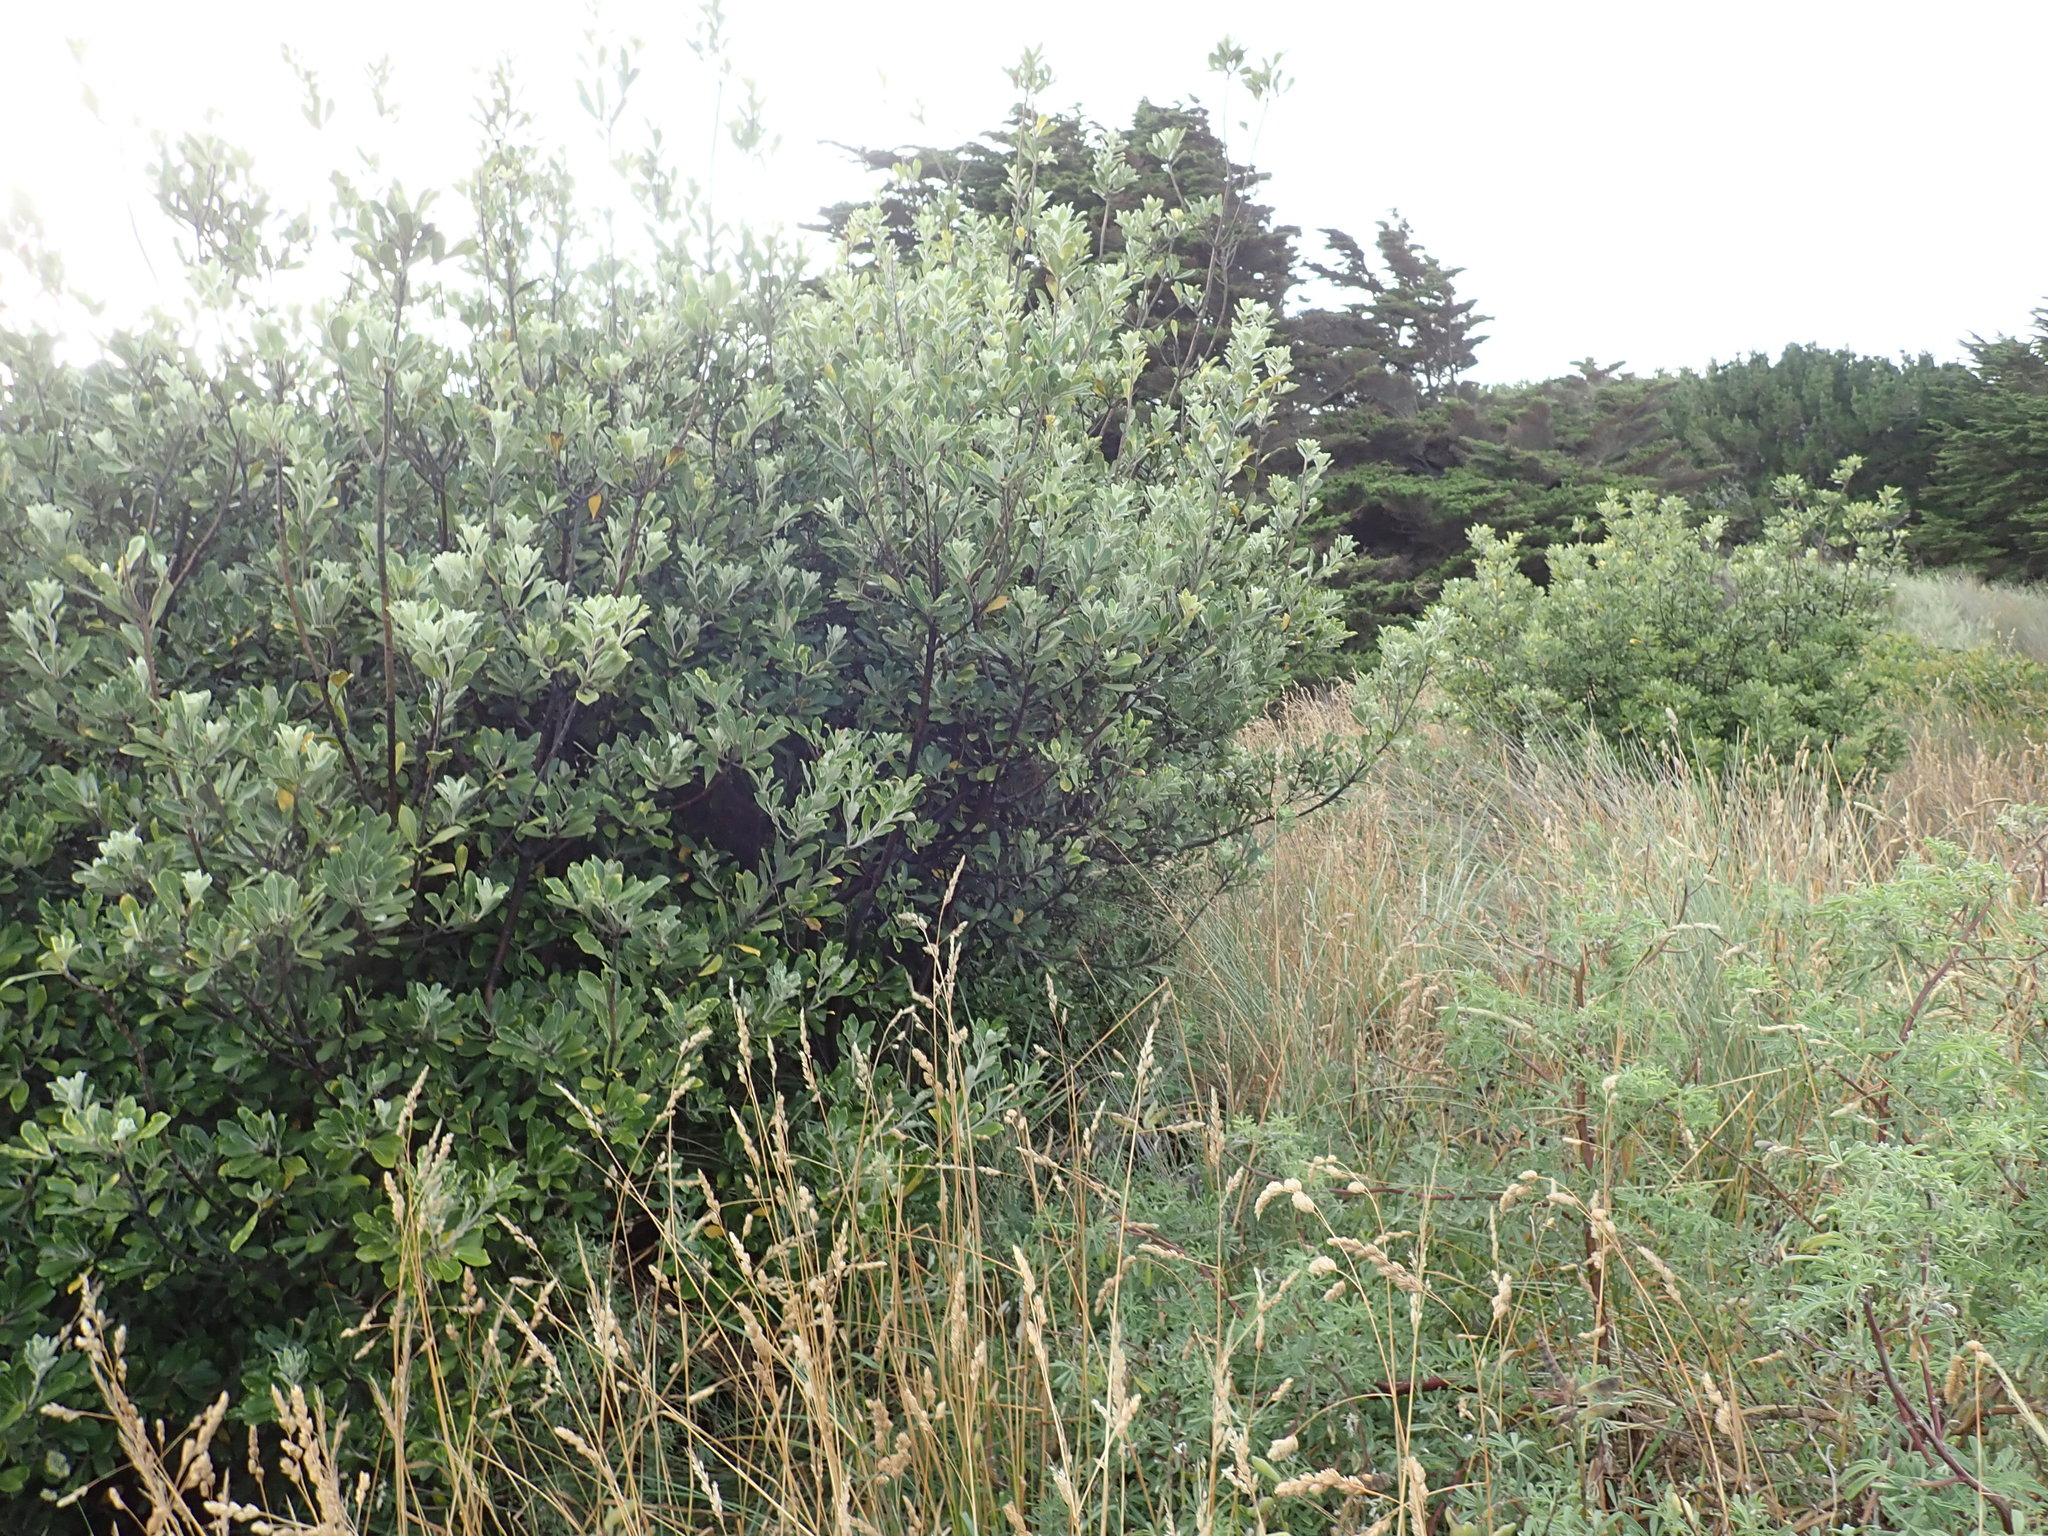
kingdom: Plantae
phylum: Tracheophyta
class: Magnoliopsida
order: Apiales
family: Pittosporaceae
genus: Pittosporum
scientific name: Pittosporum crassifolium
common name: Karo
